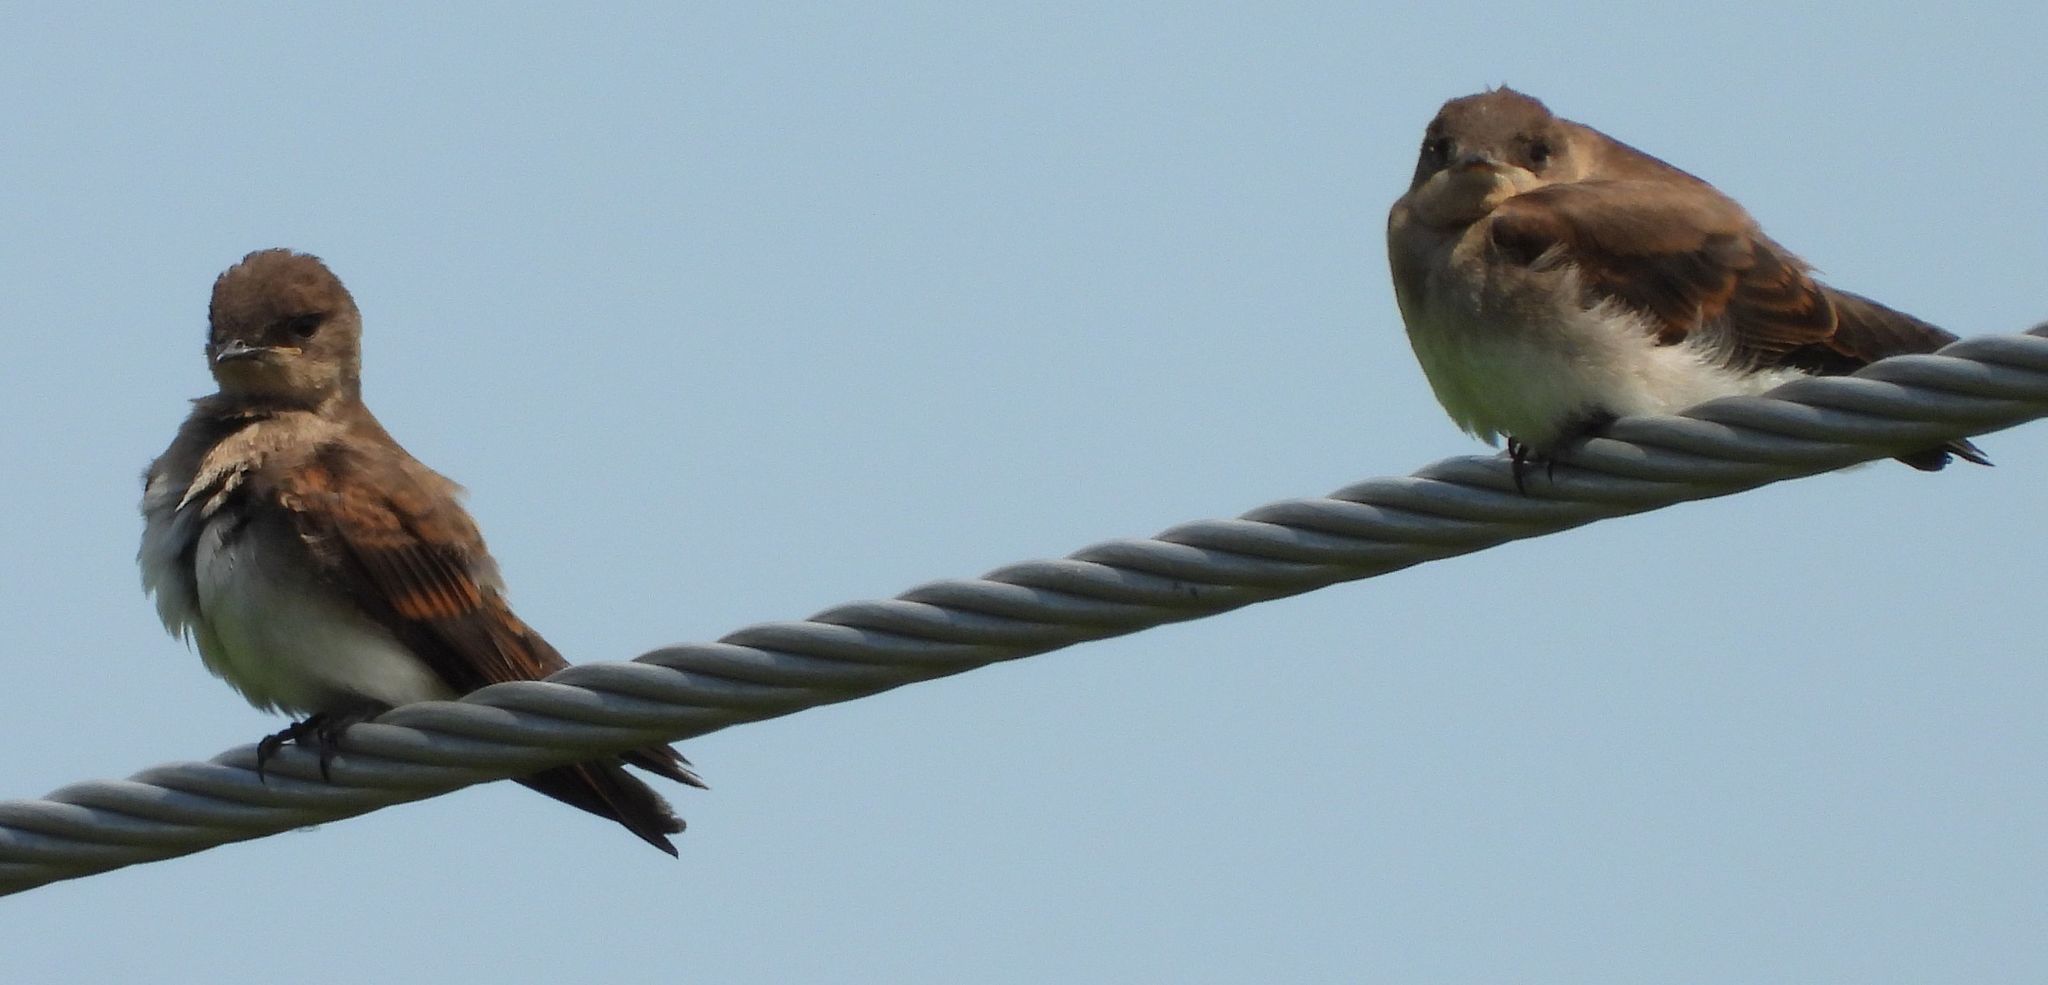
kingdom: Animalia
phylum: Chordata
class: Aves
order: Passeriformes
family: Hirundinidae
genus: Stelgidopteryx
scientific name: Stelgidopteryx serripennis
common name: Northern rough-winged swallow
